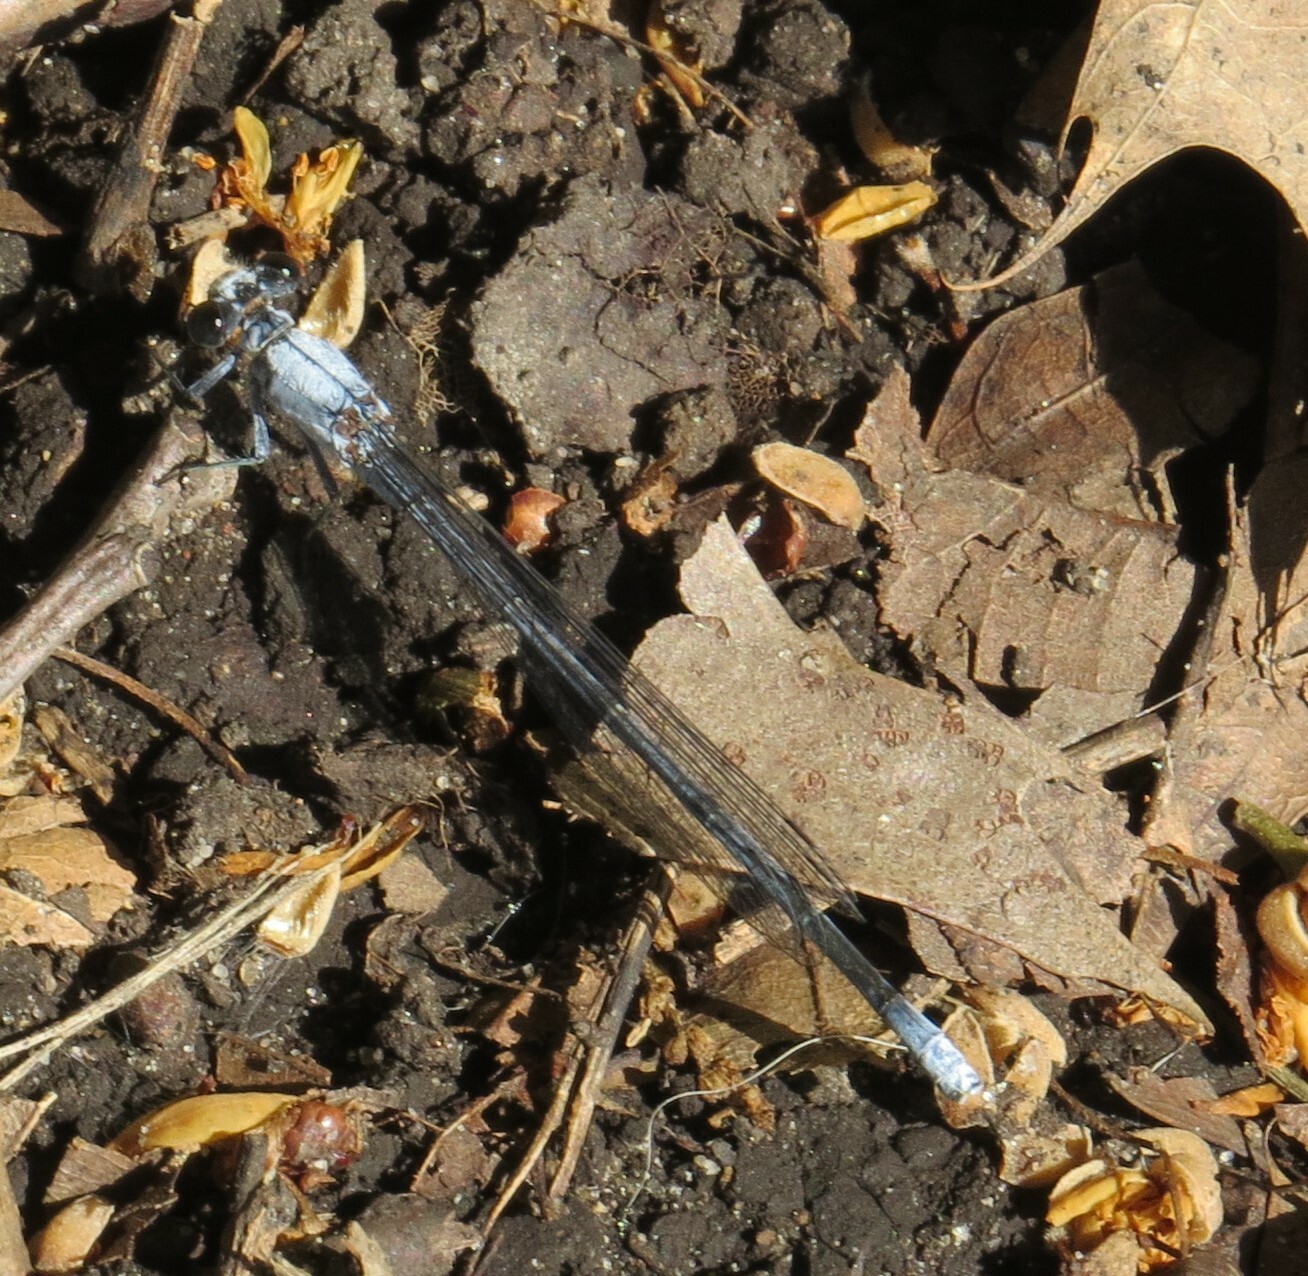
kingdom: Animalia
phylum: Arthropoda
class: Insecta
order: Odonata
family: Coenagrionidae
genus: Argia
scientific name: Argia moesta
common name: Powdered dancer
